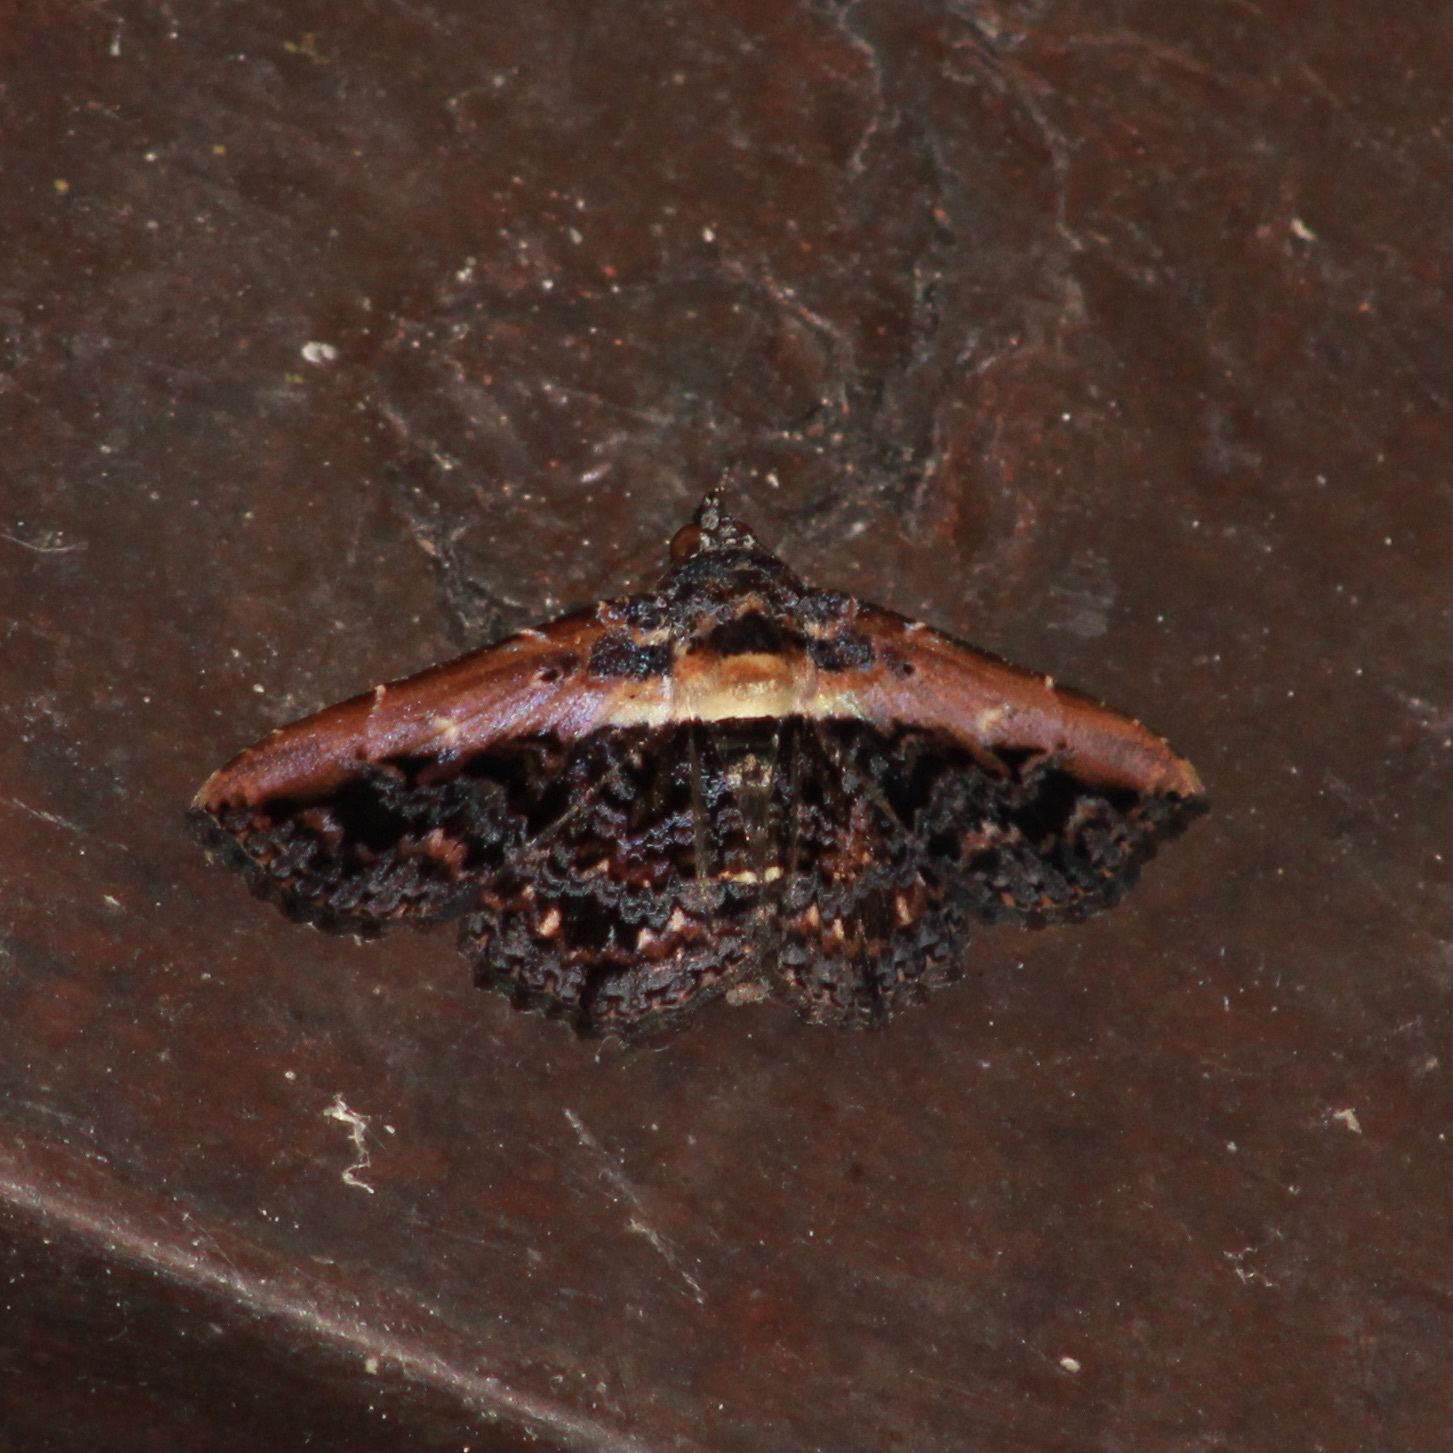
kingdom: Animalia
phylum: Arthropoda
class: Insecta
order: Lepidoptera
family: Erebidae
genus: Selenisa
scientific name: Selenisa lanipes
